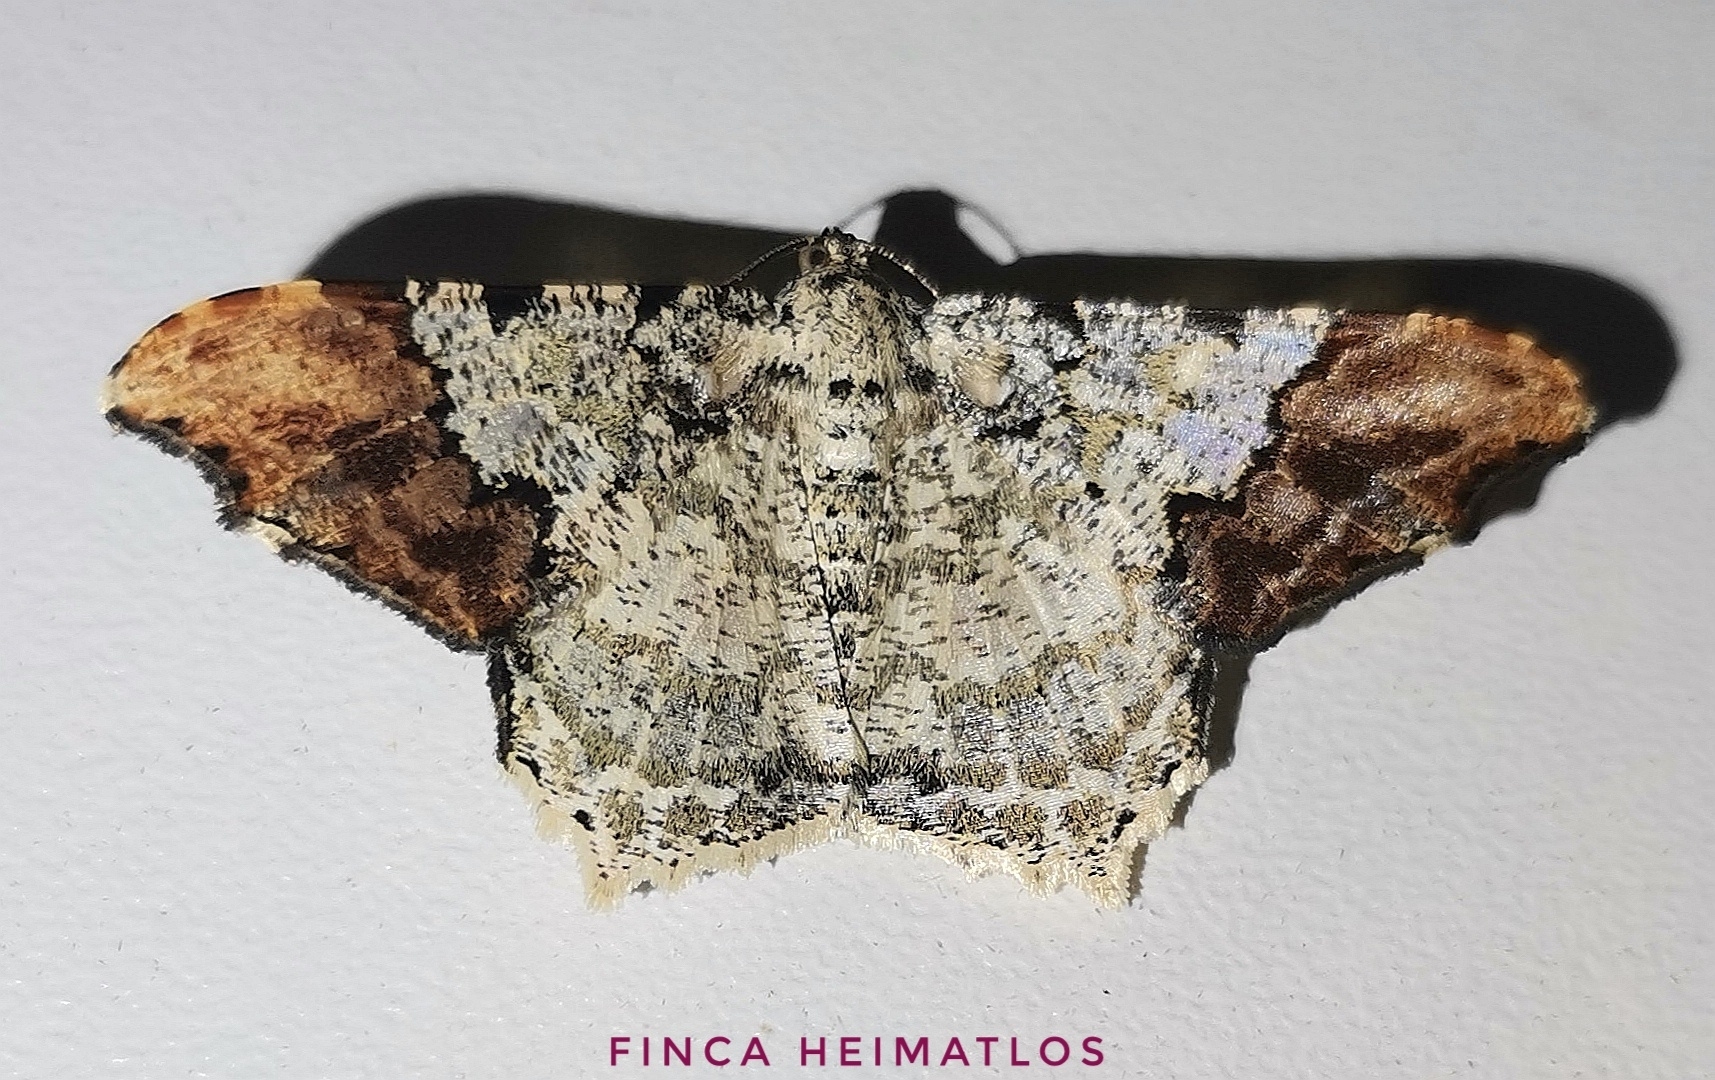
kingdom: Animalia
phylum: Arthropoda
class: Insecta
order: Lepidoptera
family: Geometridae
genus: Semiothisa
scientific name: Semiothisa
